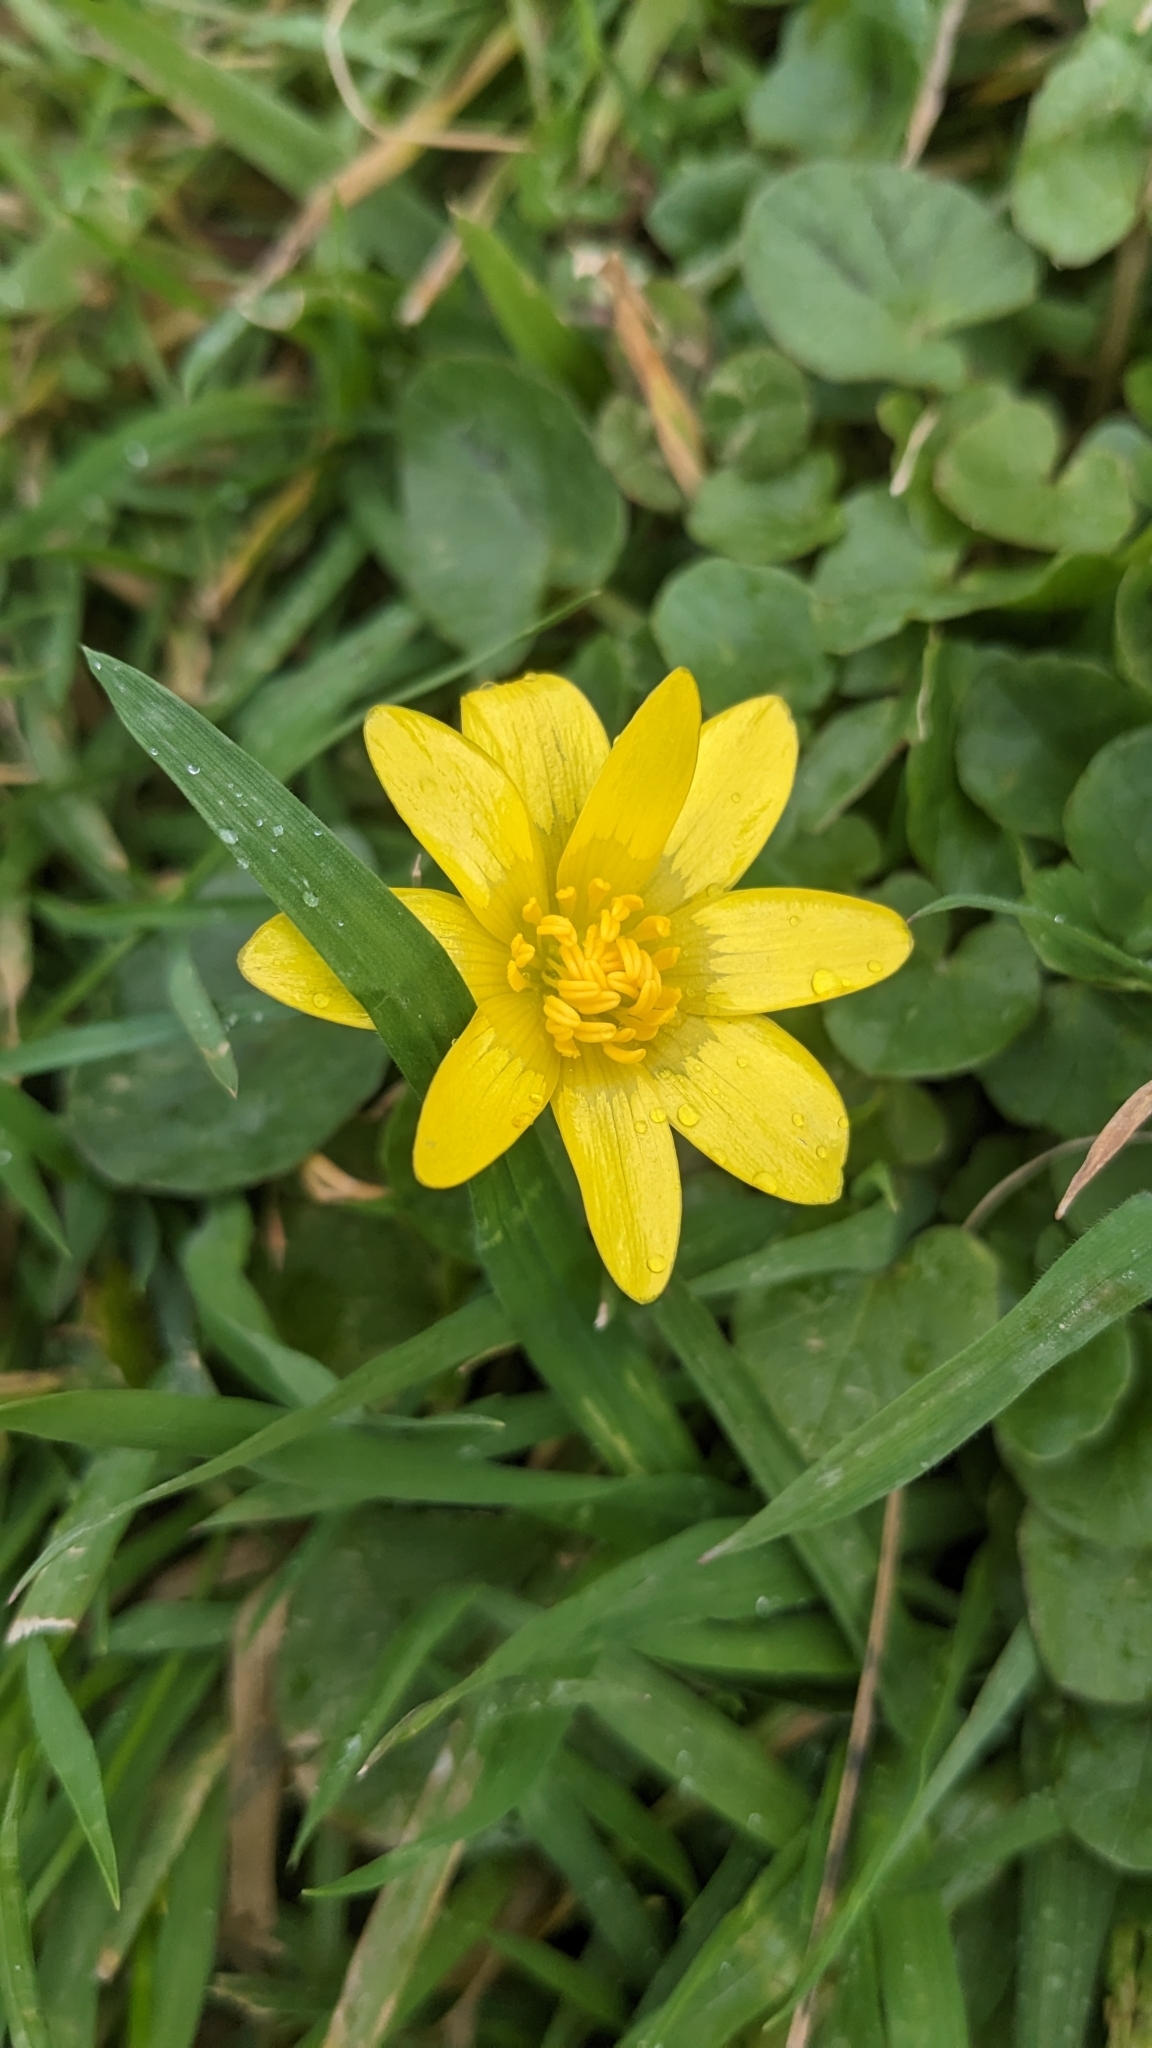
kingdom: Plantae
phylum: Tracheophyta
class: Magnoliopsida
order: Ranunculales
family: Ranunculaceae
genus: Ficaria
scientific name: Ficaria verna
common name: Lesser celandine
